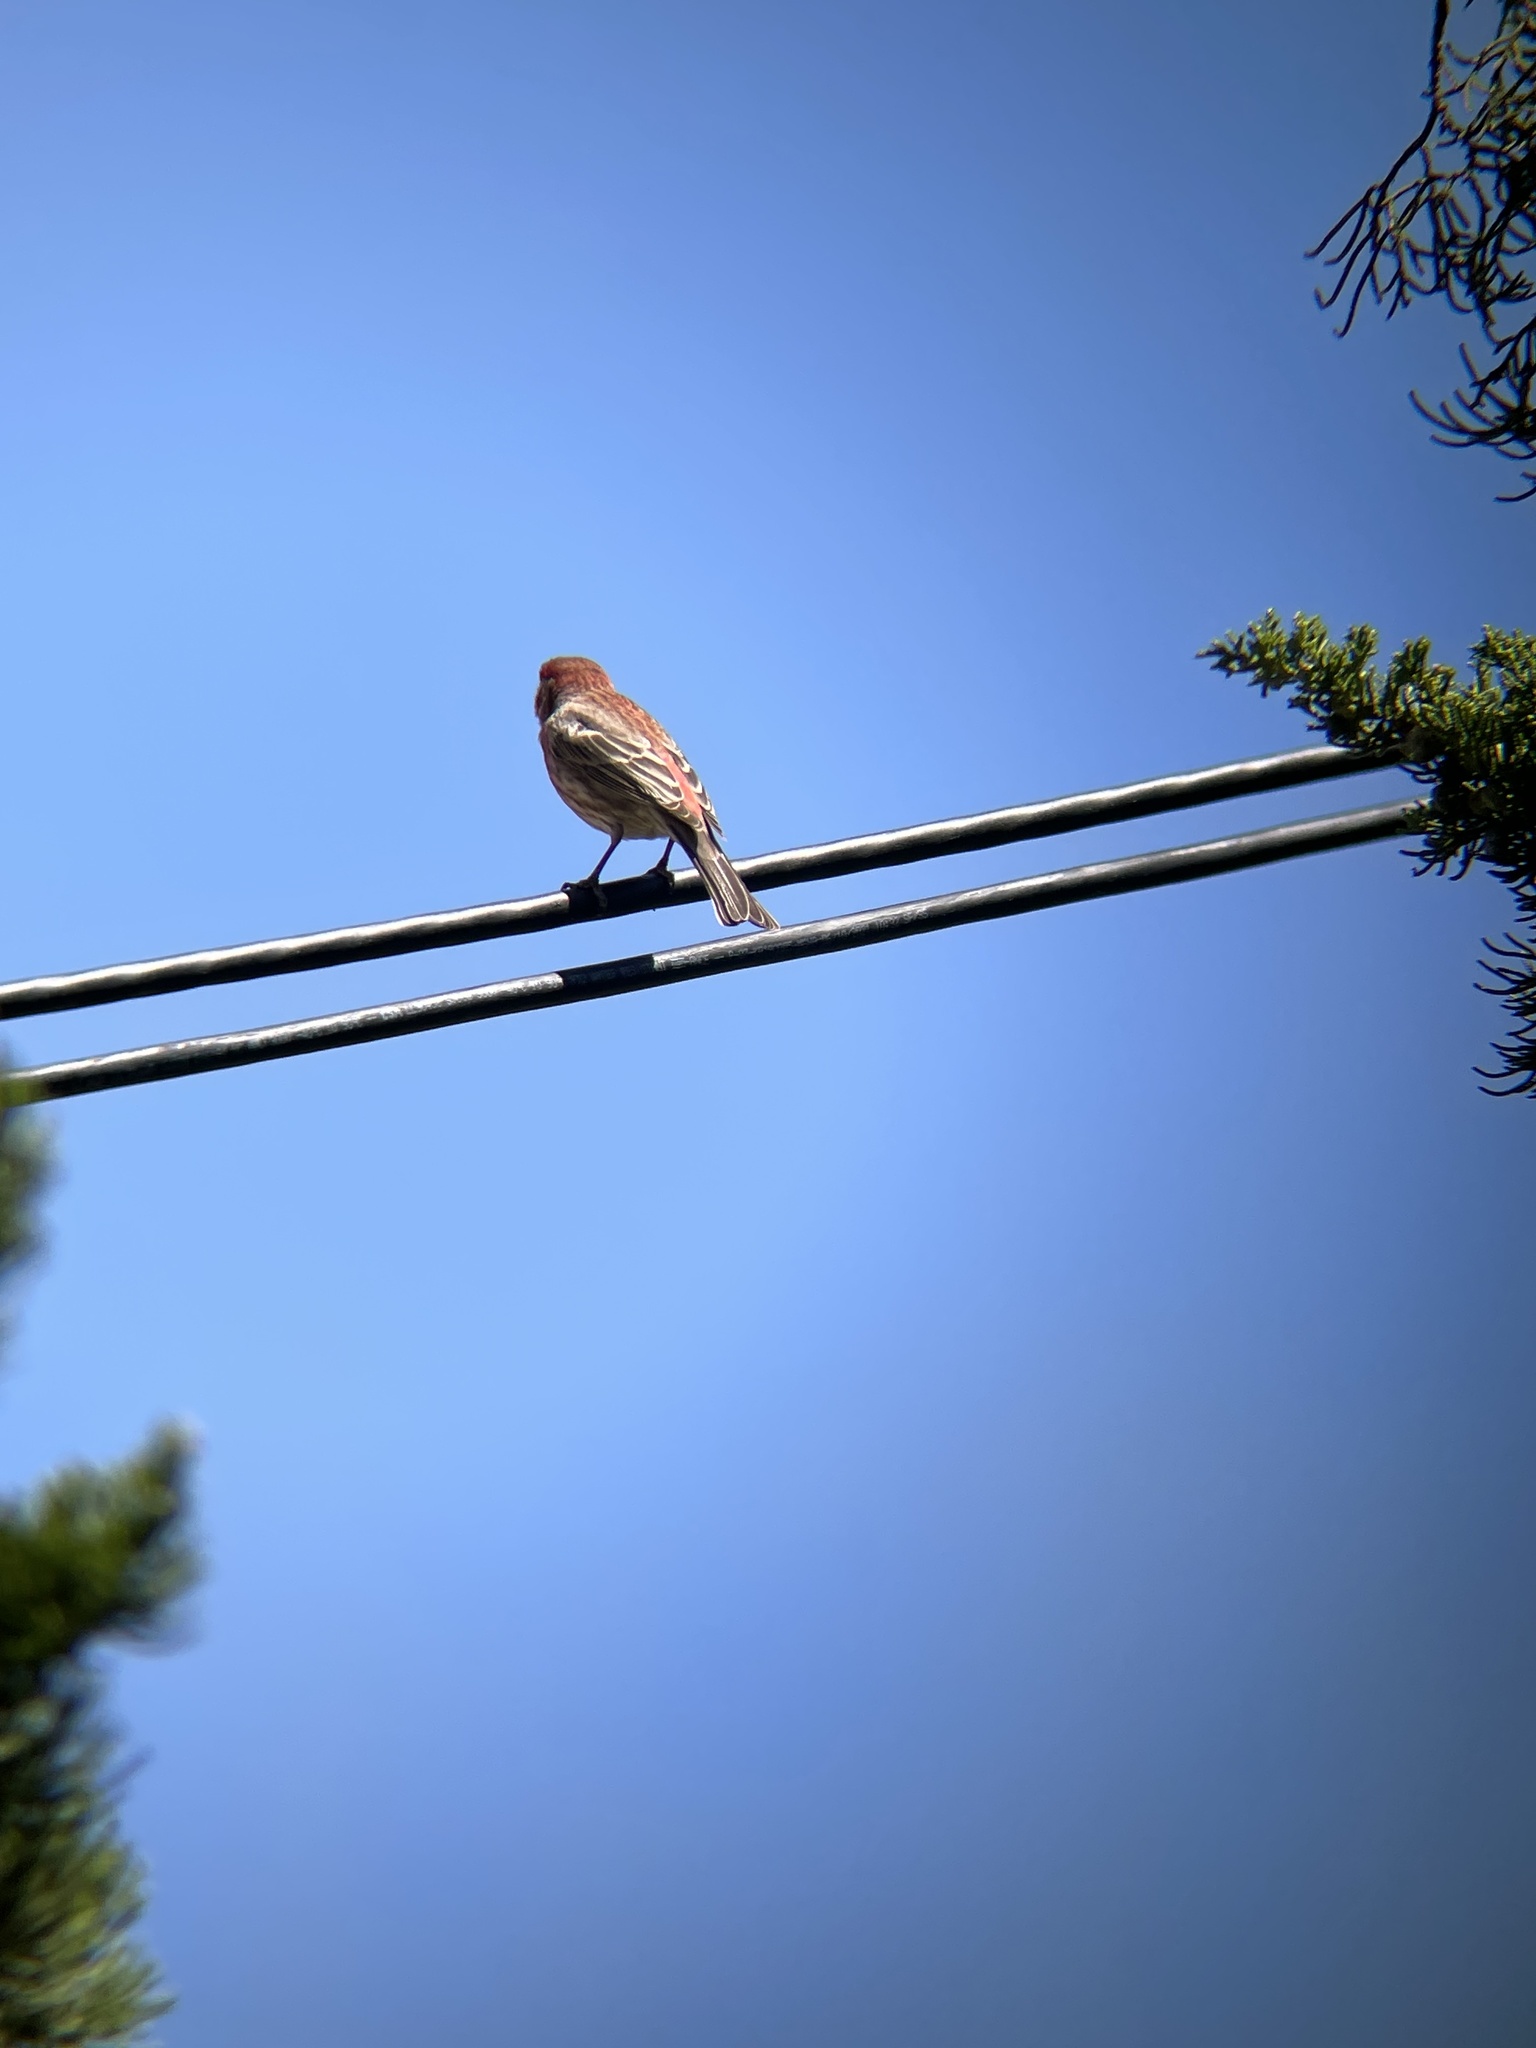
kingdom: Animalia
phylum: Chordata
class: Aves
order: Passeriformes
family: Fringillidae
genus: Haemorhous
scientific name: Haemorhous mexicanus
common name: House finch
